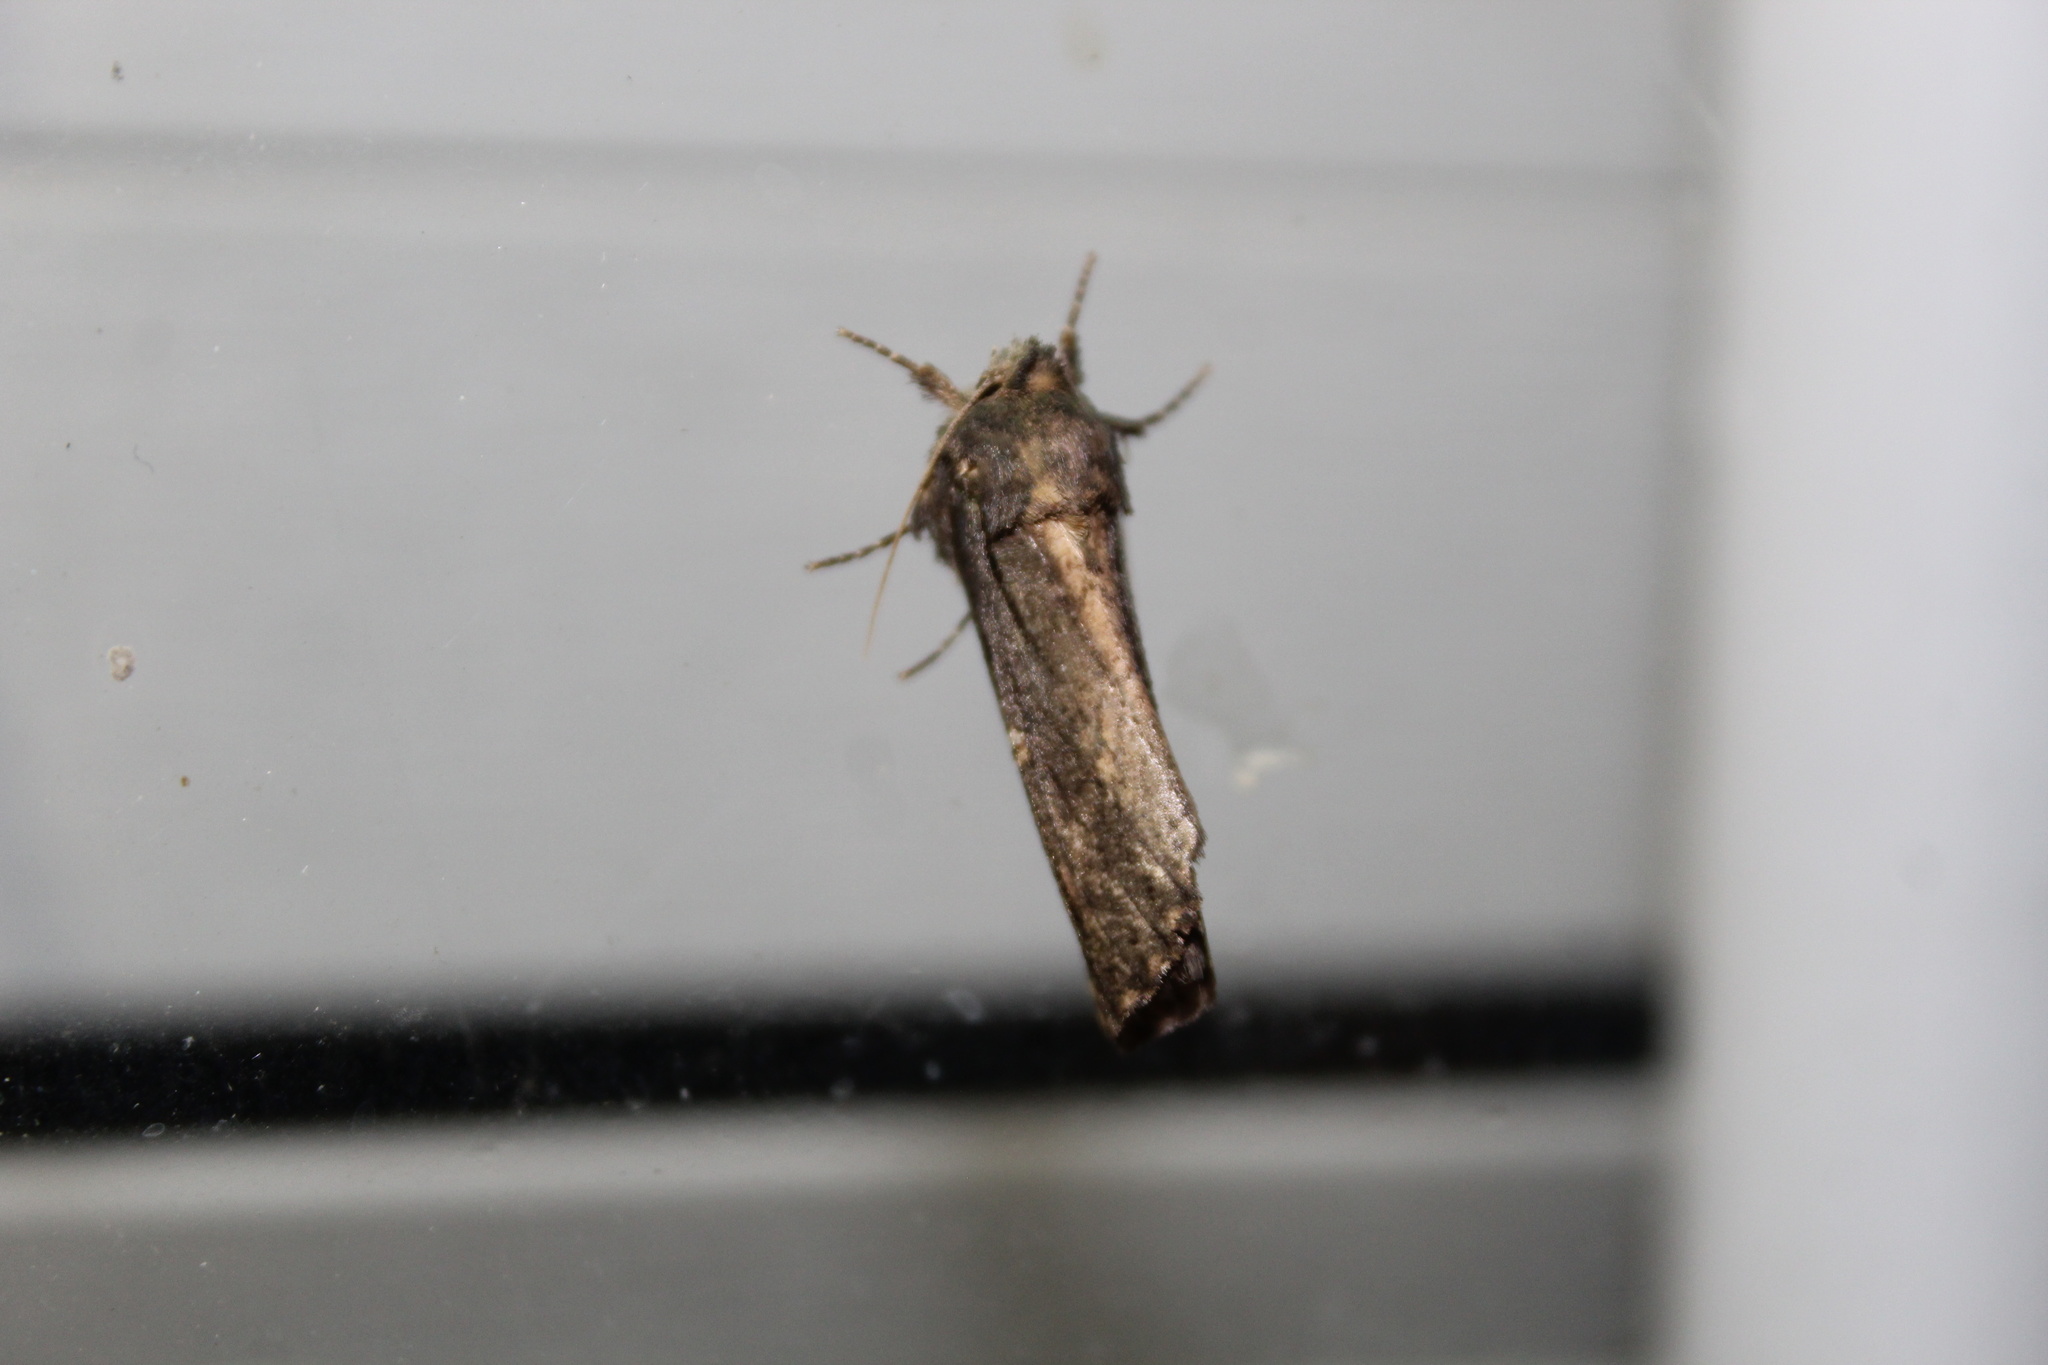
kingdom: Animalia
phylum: Arthropoda
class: Insecta
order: Lepidoptera
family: Notodontidae
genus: Schizura
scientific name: Schizura ipomaeae
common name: Morning-glory prominent
